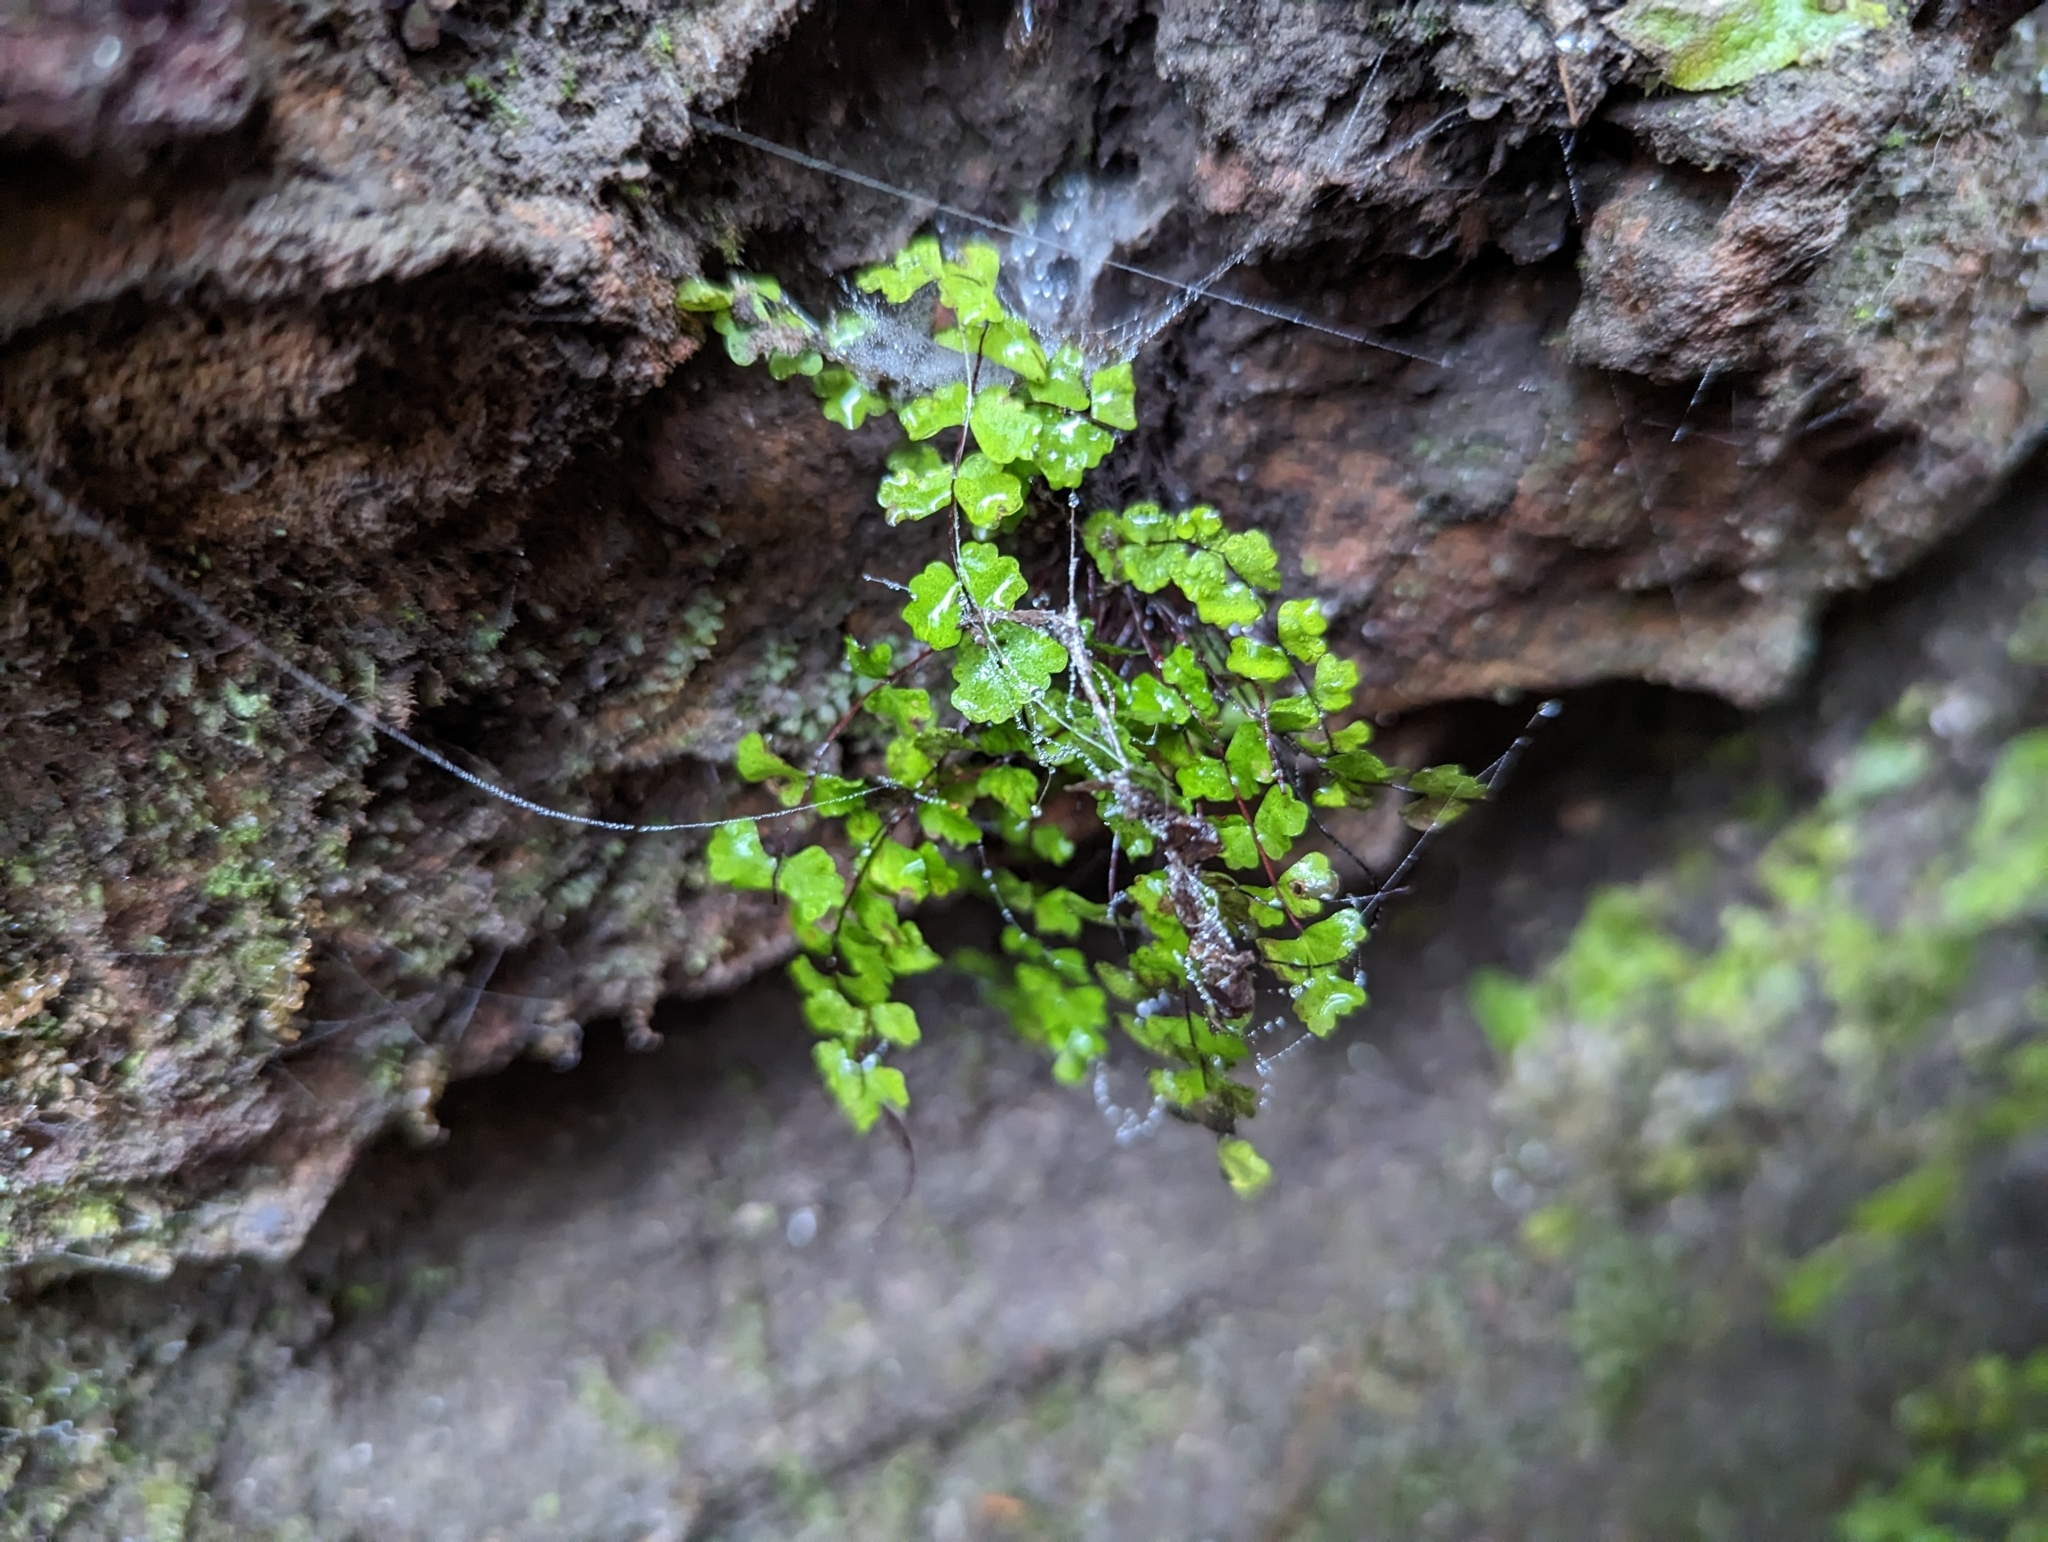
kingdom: Plantae
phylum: Tracheophyta
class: Polypodiopsida
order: Polypodiales
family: Aspleniaceae
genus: Asplenium
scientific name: Asplenium trichomanes
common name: Maidenhair spleenwort
